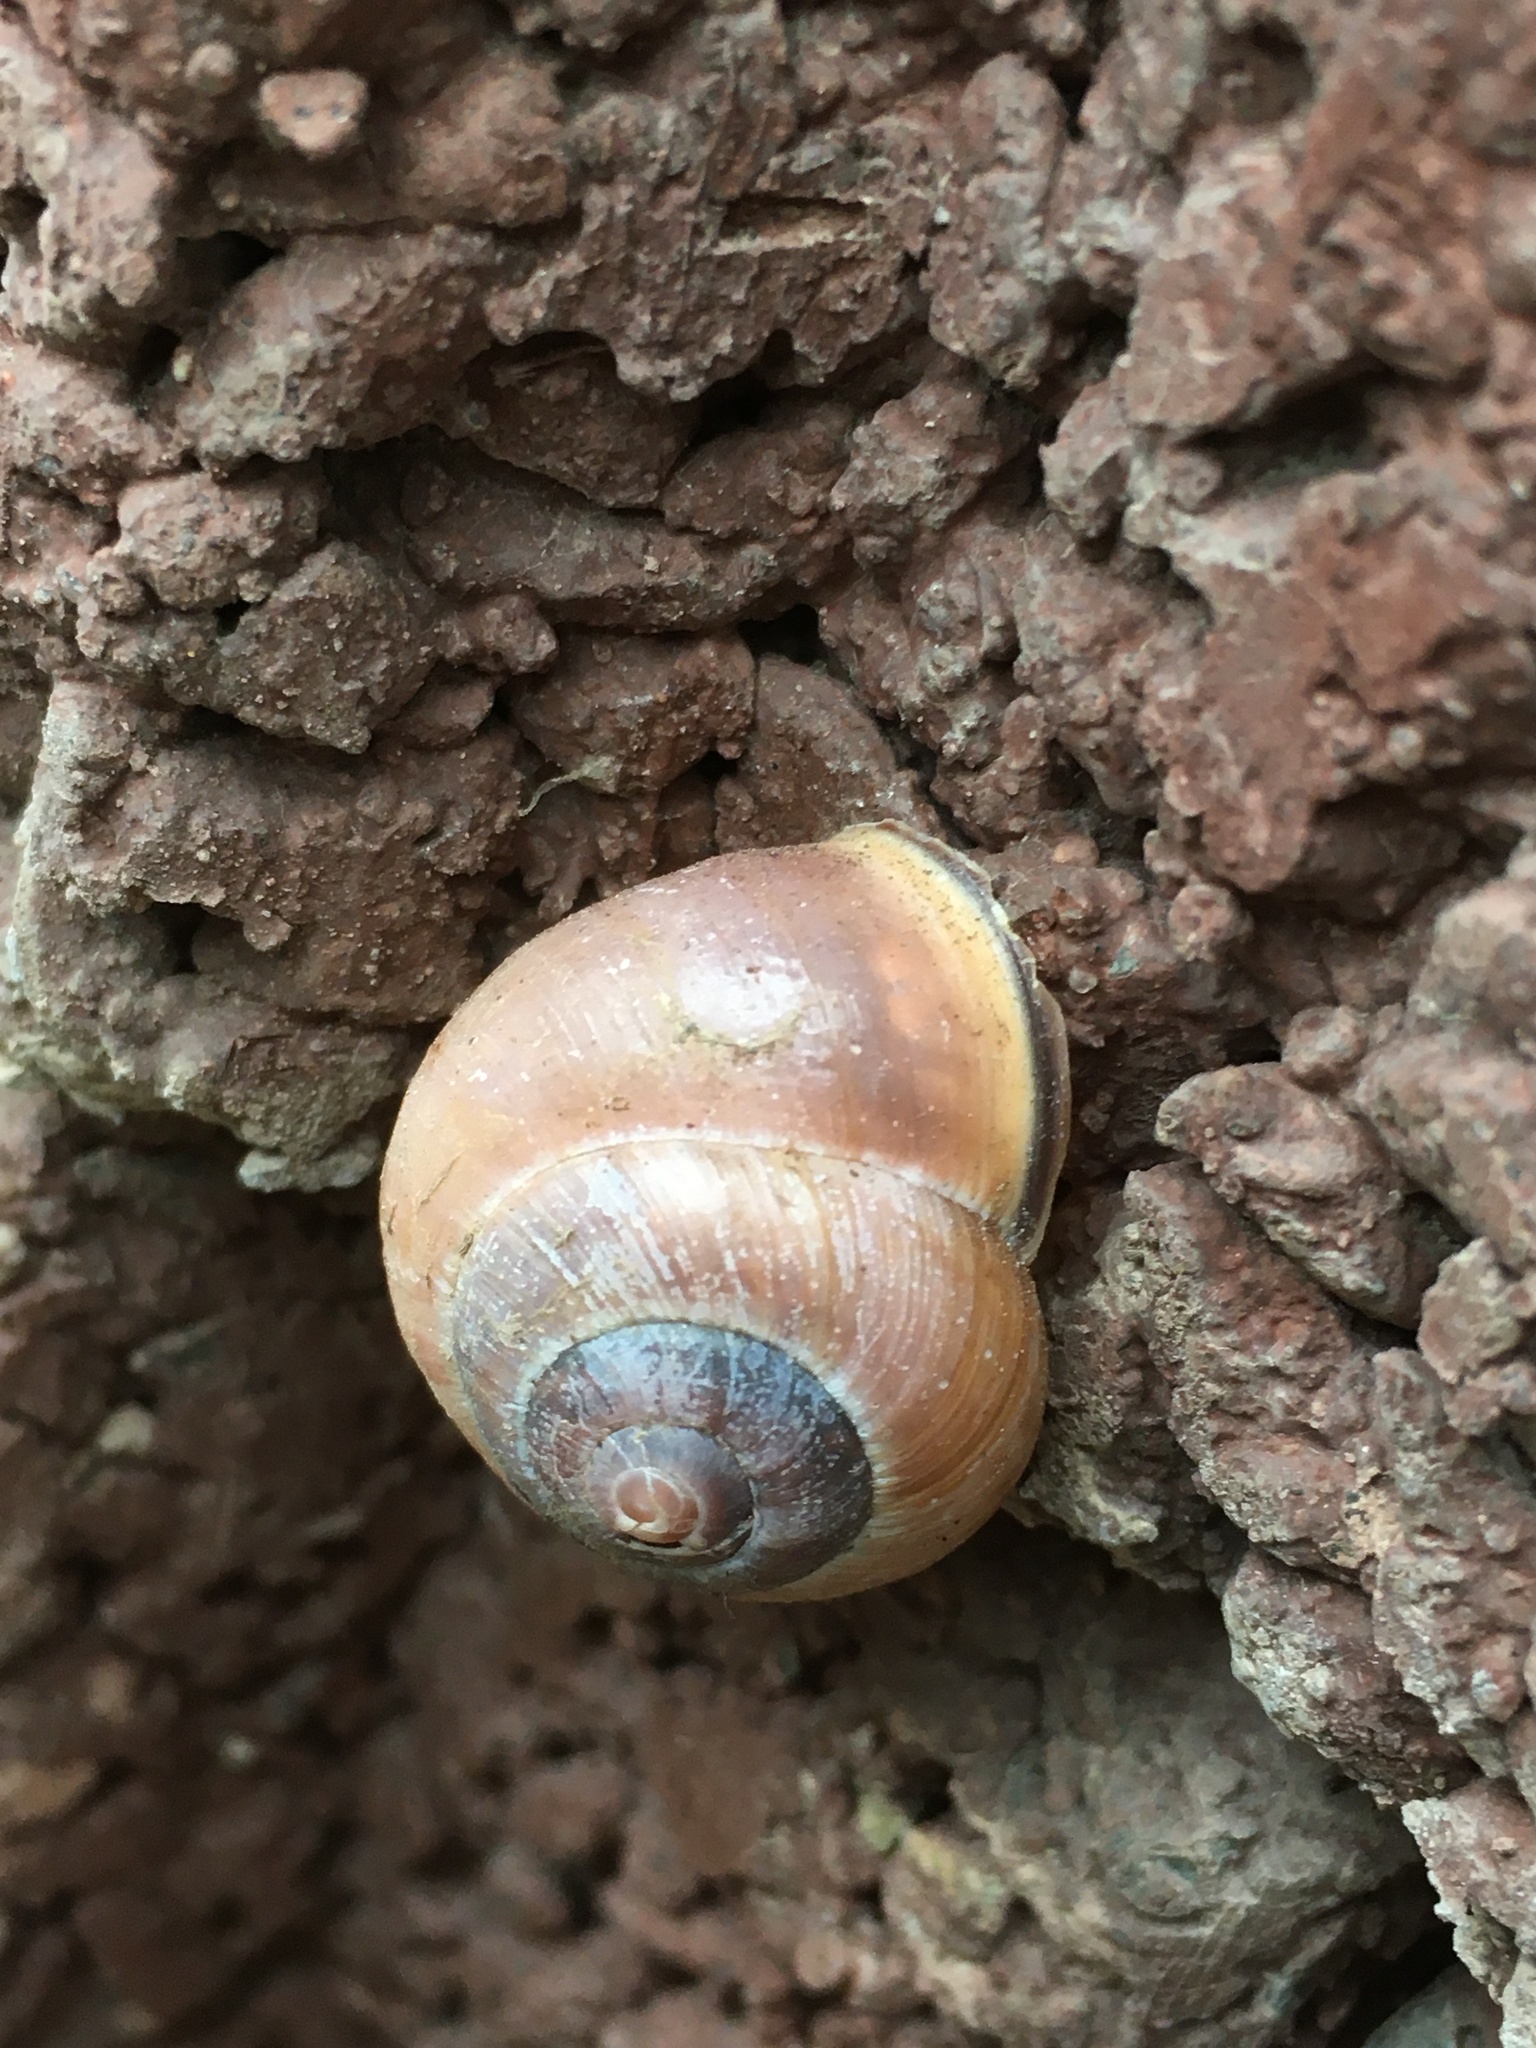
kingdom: Animalia
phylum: Mollusca
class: Gastropoda
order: Stylommatophora
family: Helicidae
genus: Cepaea
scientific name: Cepaea nemoralis
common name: Grovesnail
